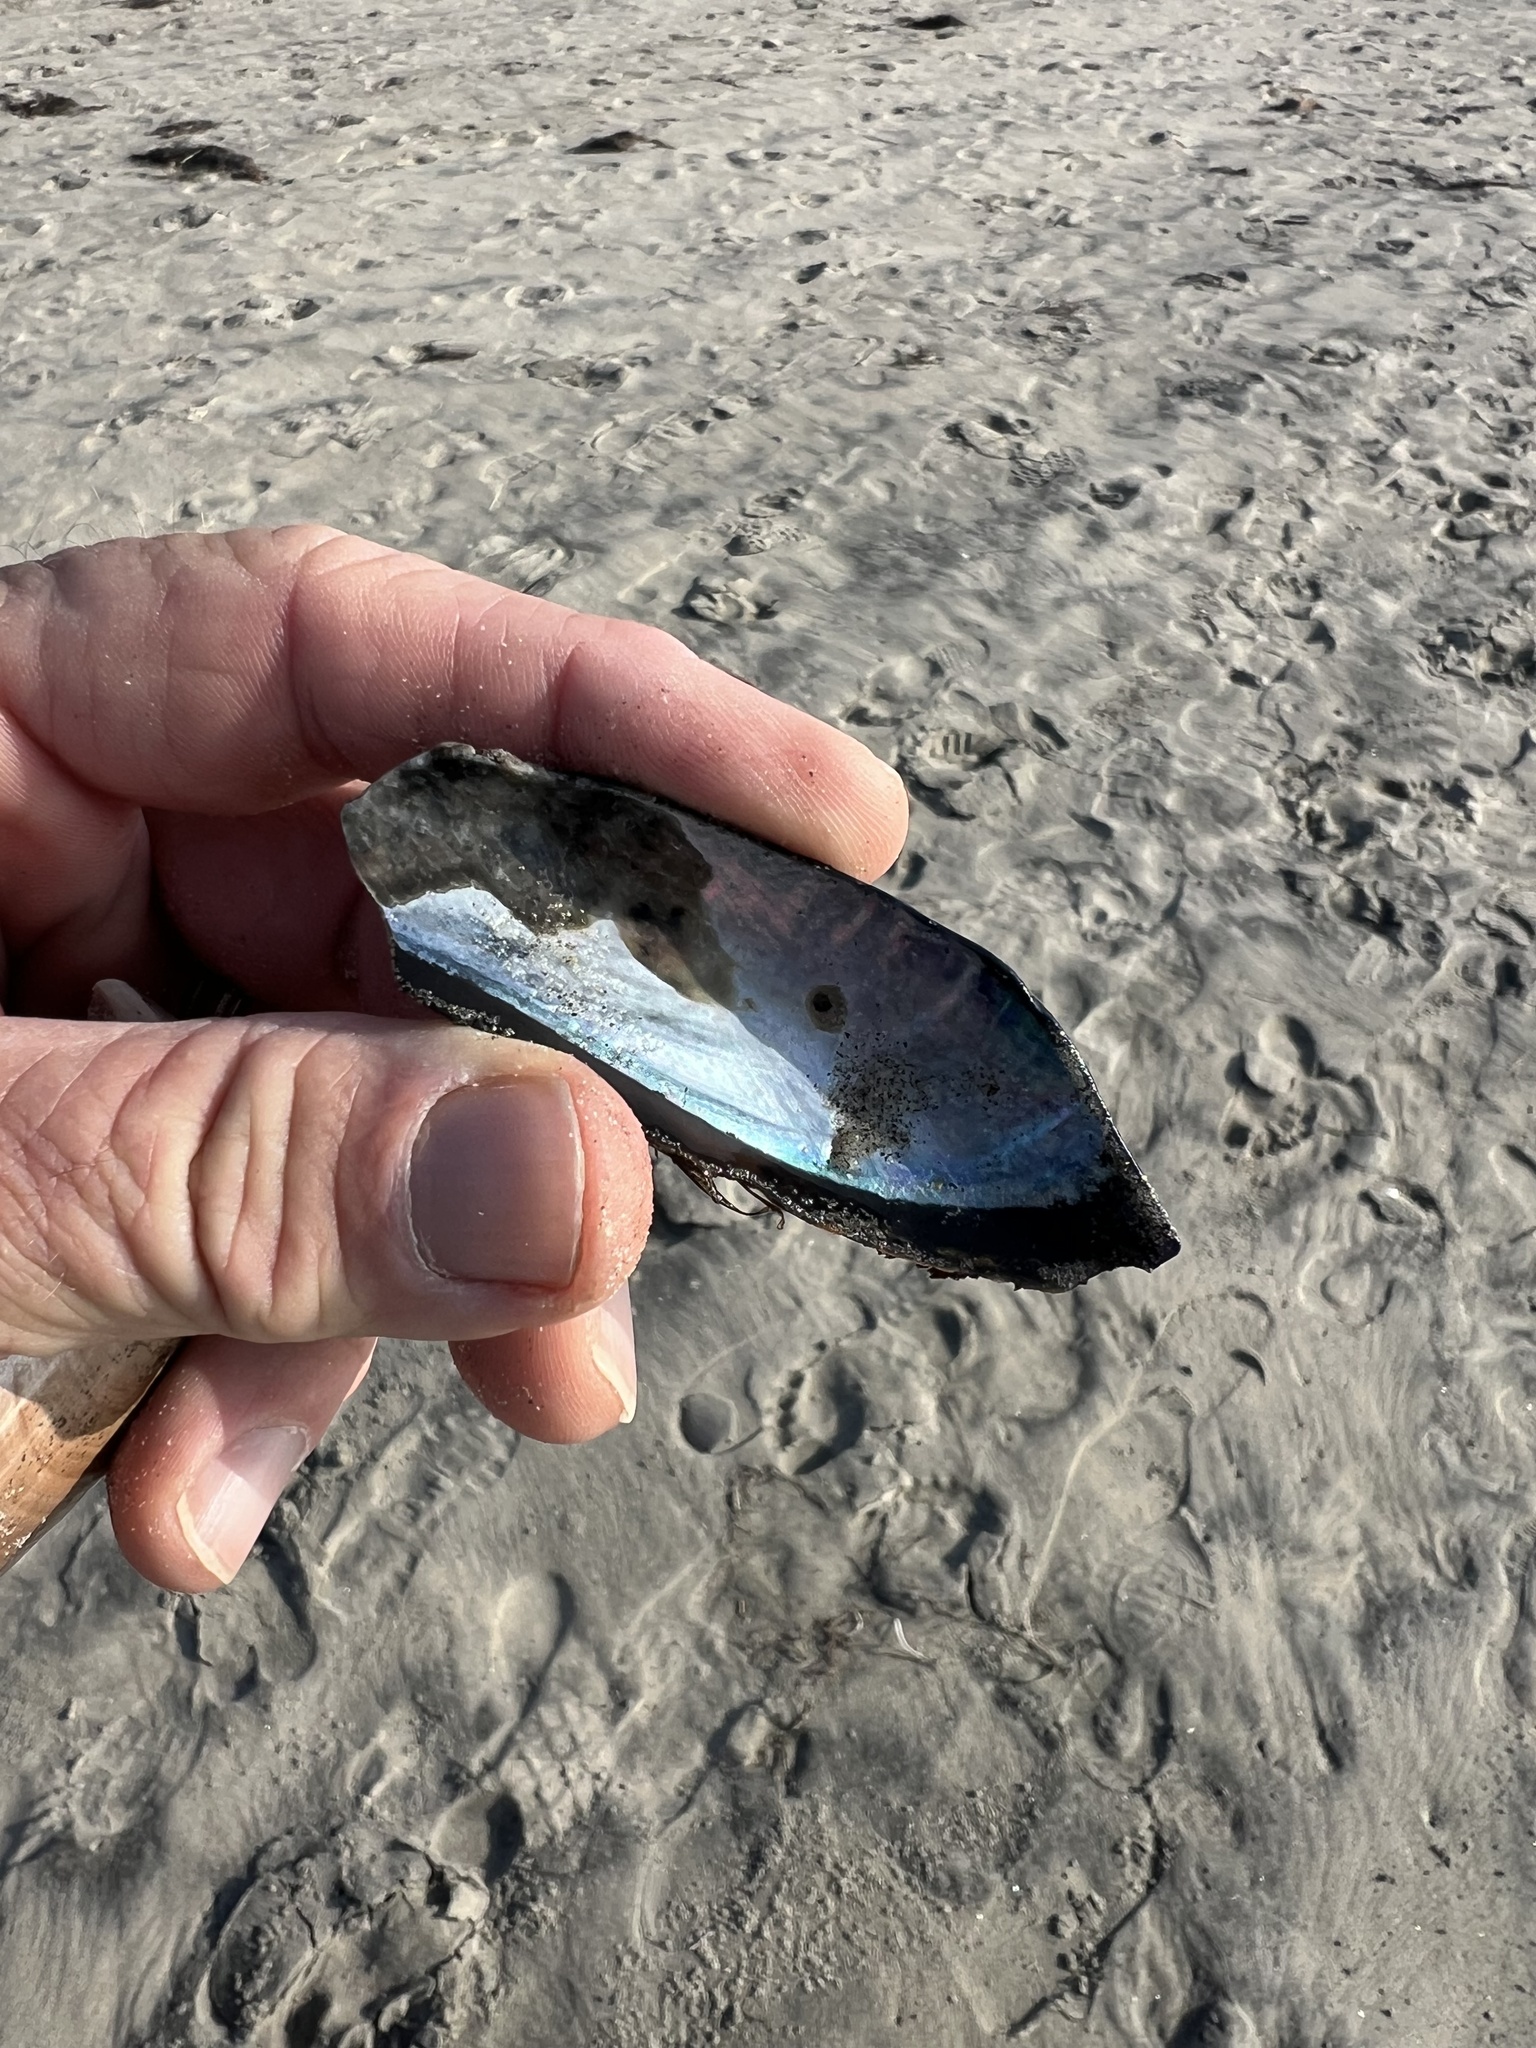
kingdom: Animalia
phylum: Mollusca
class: Bivalvia
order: Mytilida
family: Mytilidae
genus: Mytilus
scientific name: Mytilus californianus
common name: California mussel
